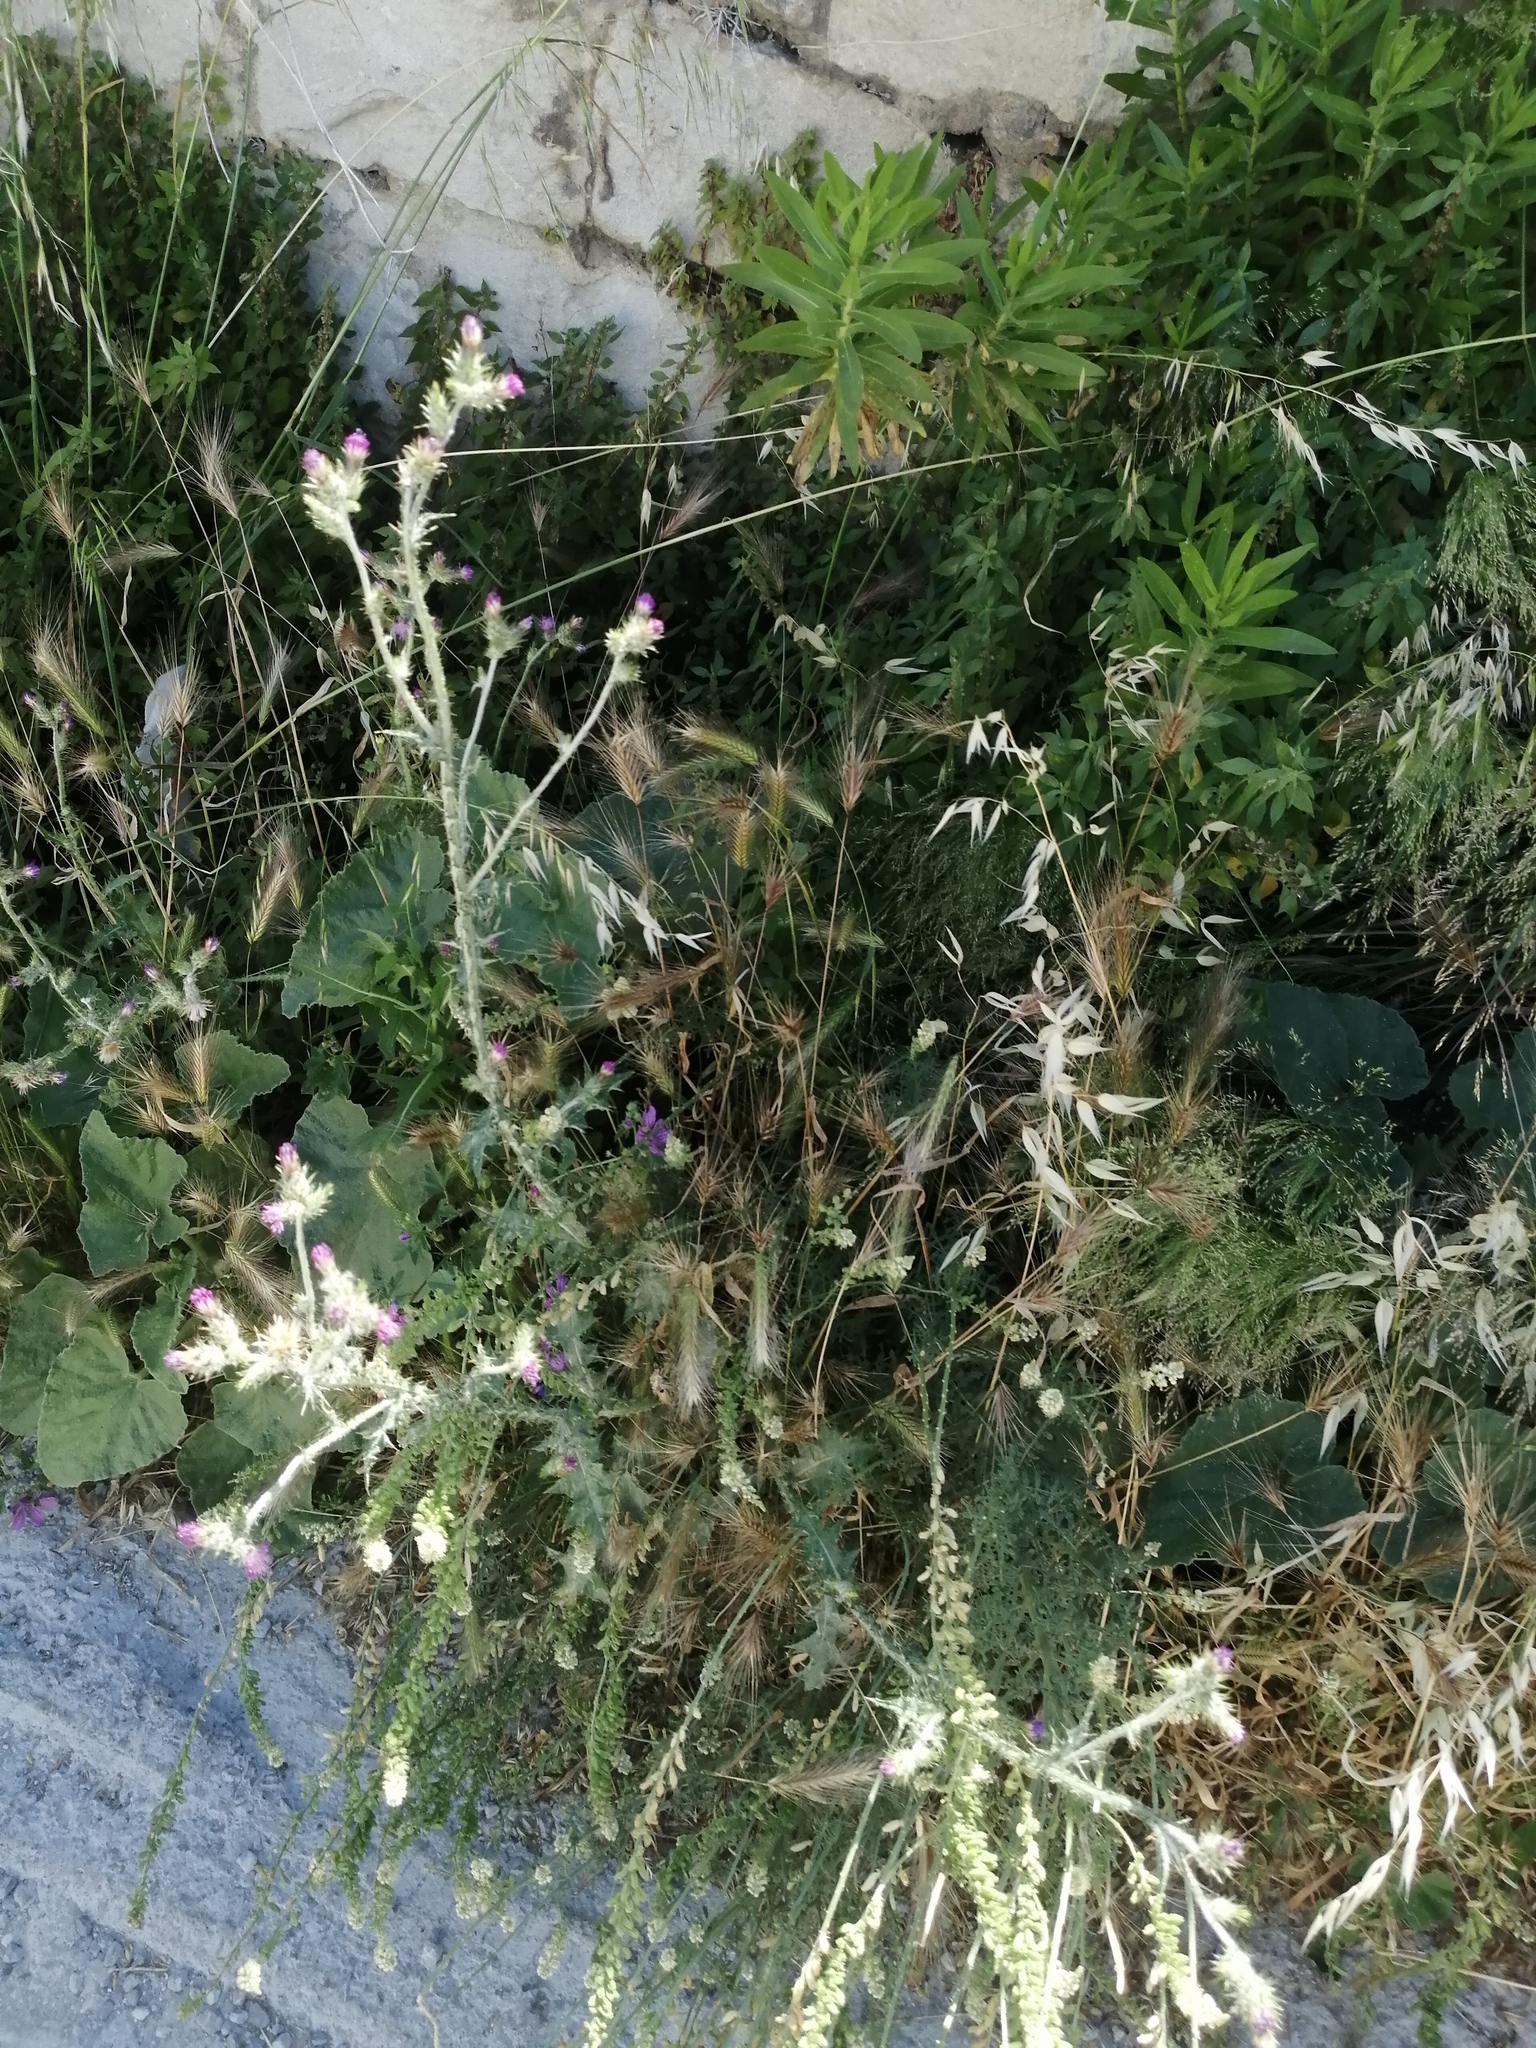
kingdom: Plantae
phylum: Tracheophyta
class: Magnoliopsida
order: Asterales
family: Asteraceae
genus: Carduus
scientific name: Carduus pycnocephalus
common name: Plymouth thistle
